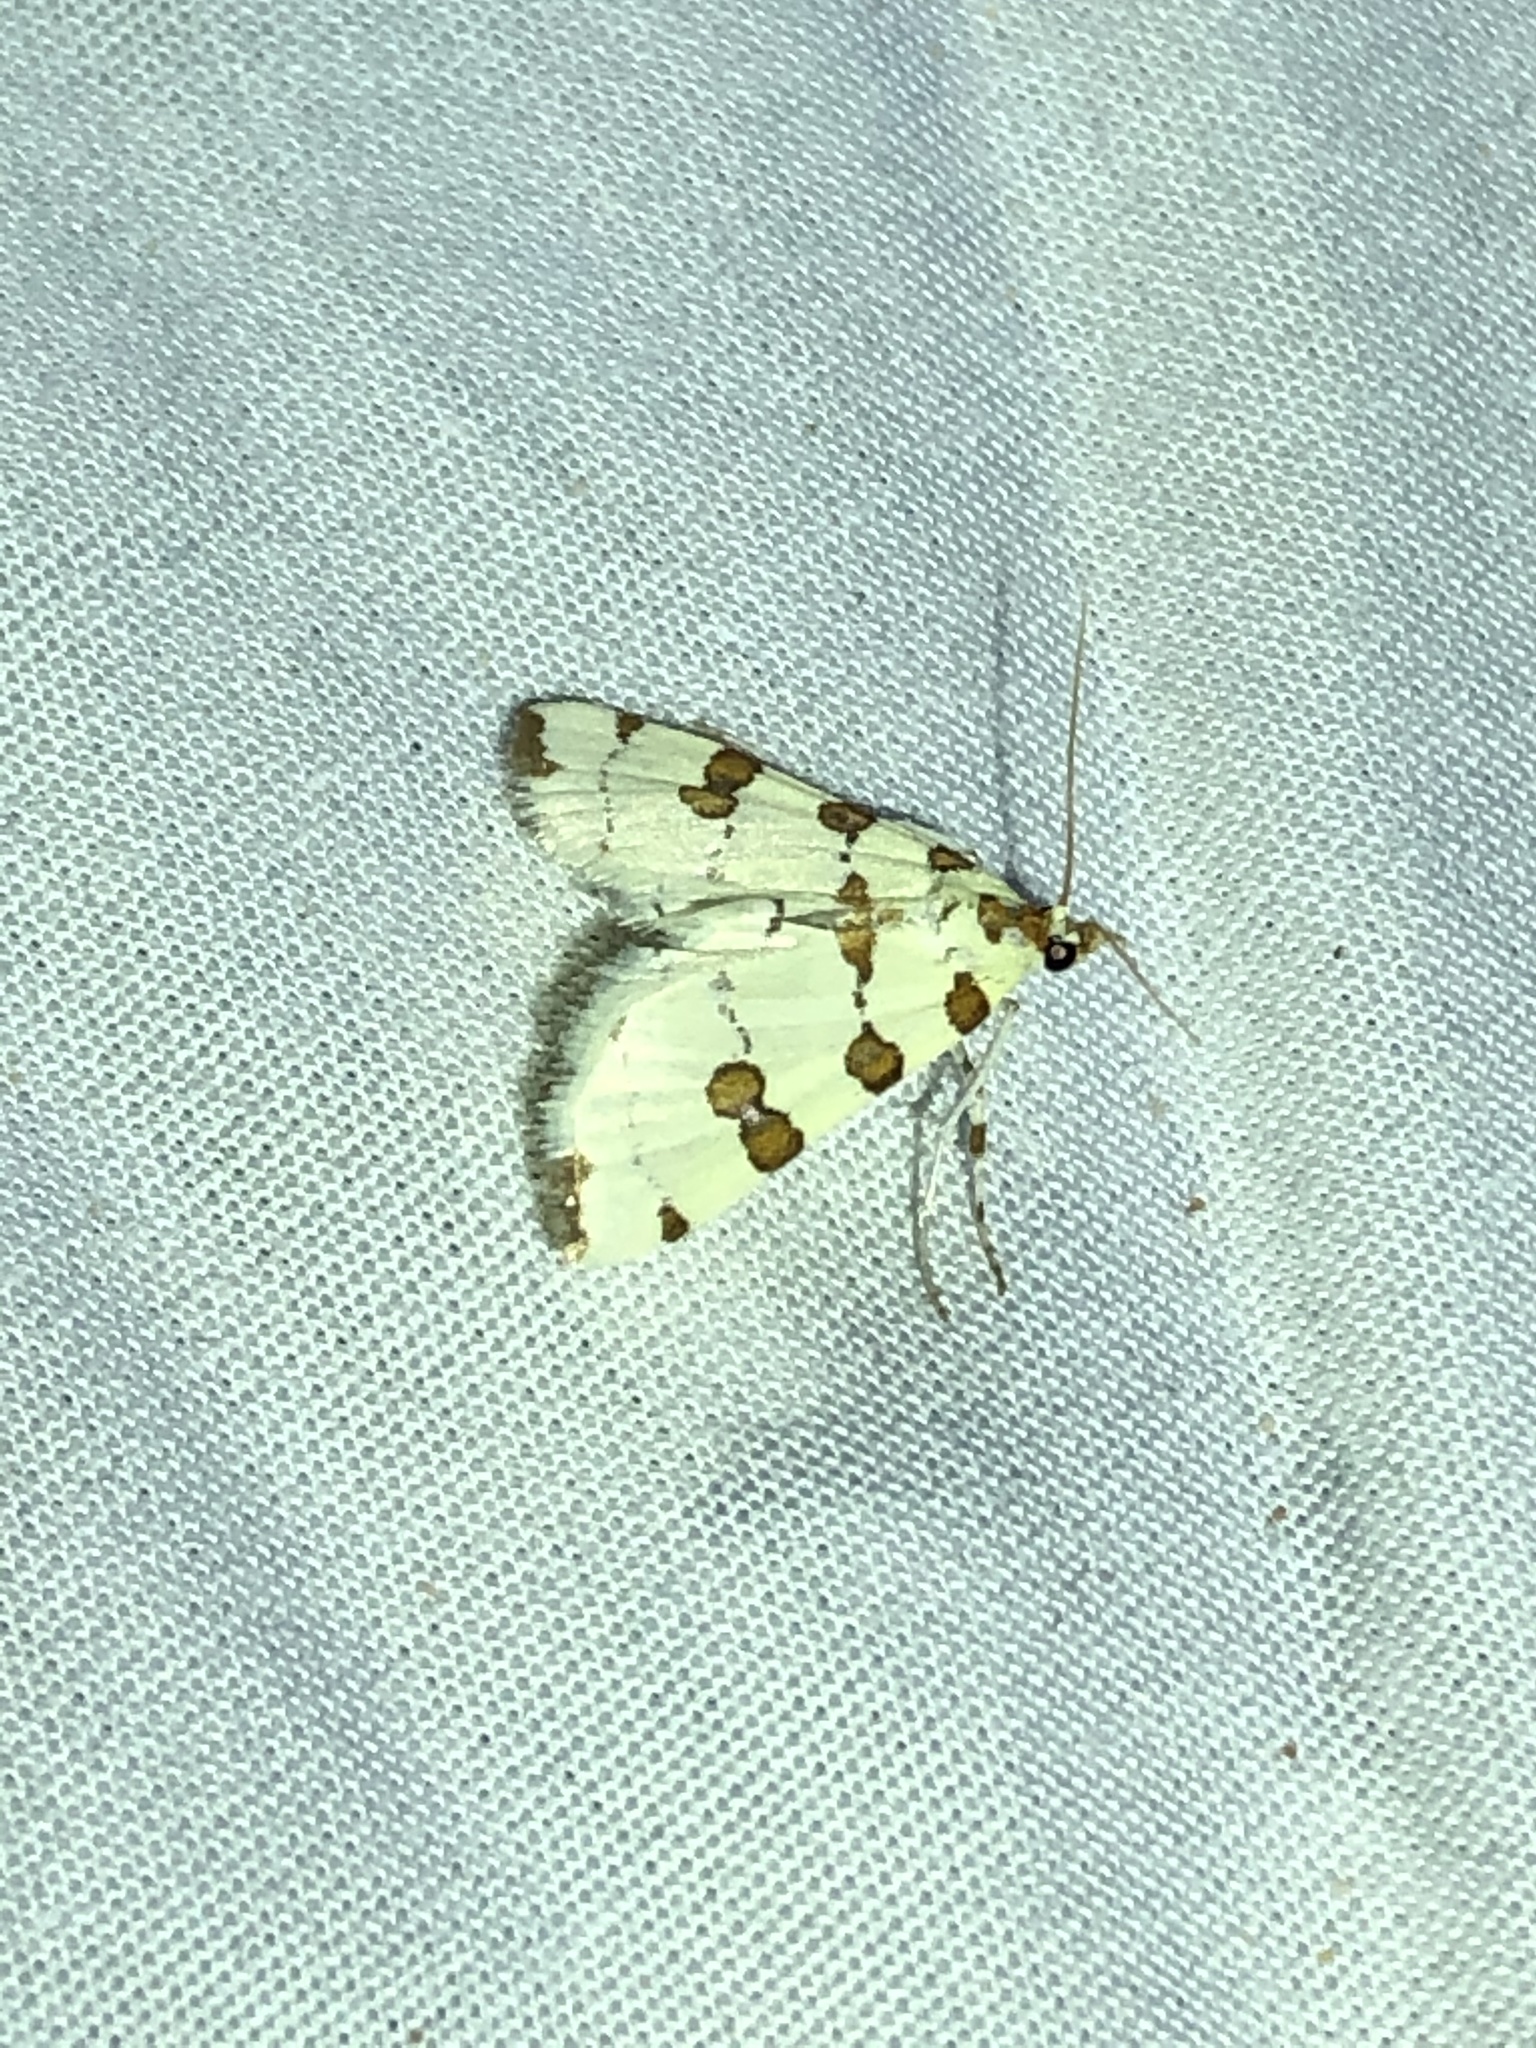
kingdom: Animalia
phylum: Arthropoda
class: Insecta
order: Lepidoptera
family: Crambidae
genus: Conchylodes
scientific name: Conchylodes
